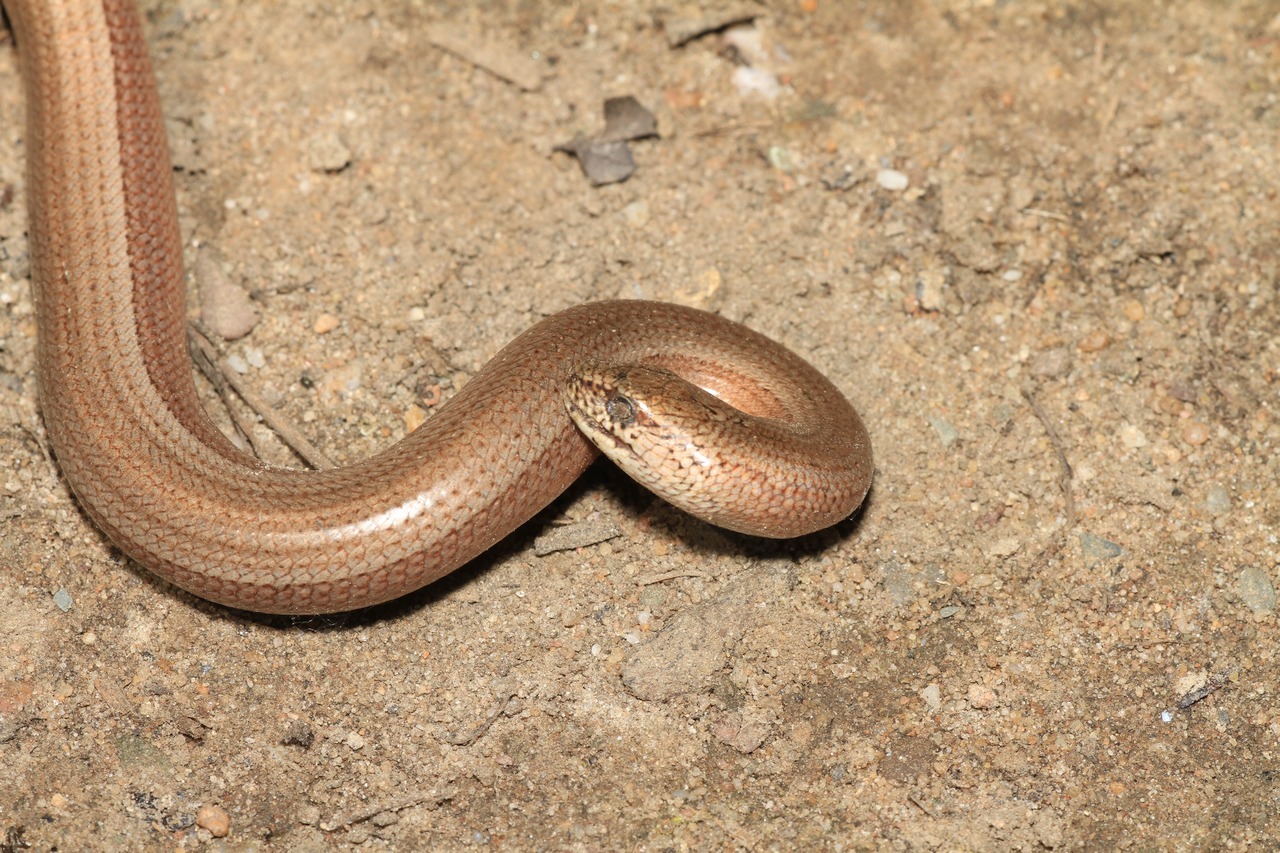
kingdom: Animalia
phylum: Chordata
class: Squamata
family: Anguidae
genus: Anguis
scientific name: Anguis fragilis
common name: Slow worm
